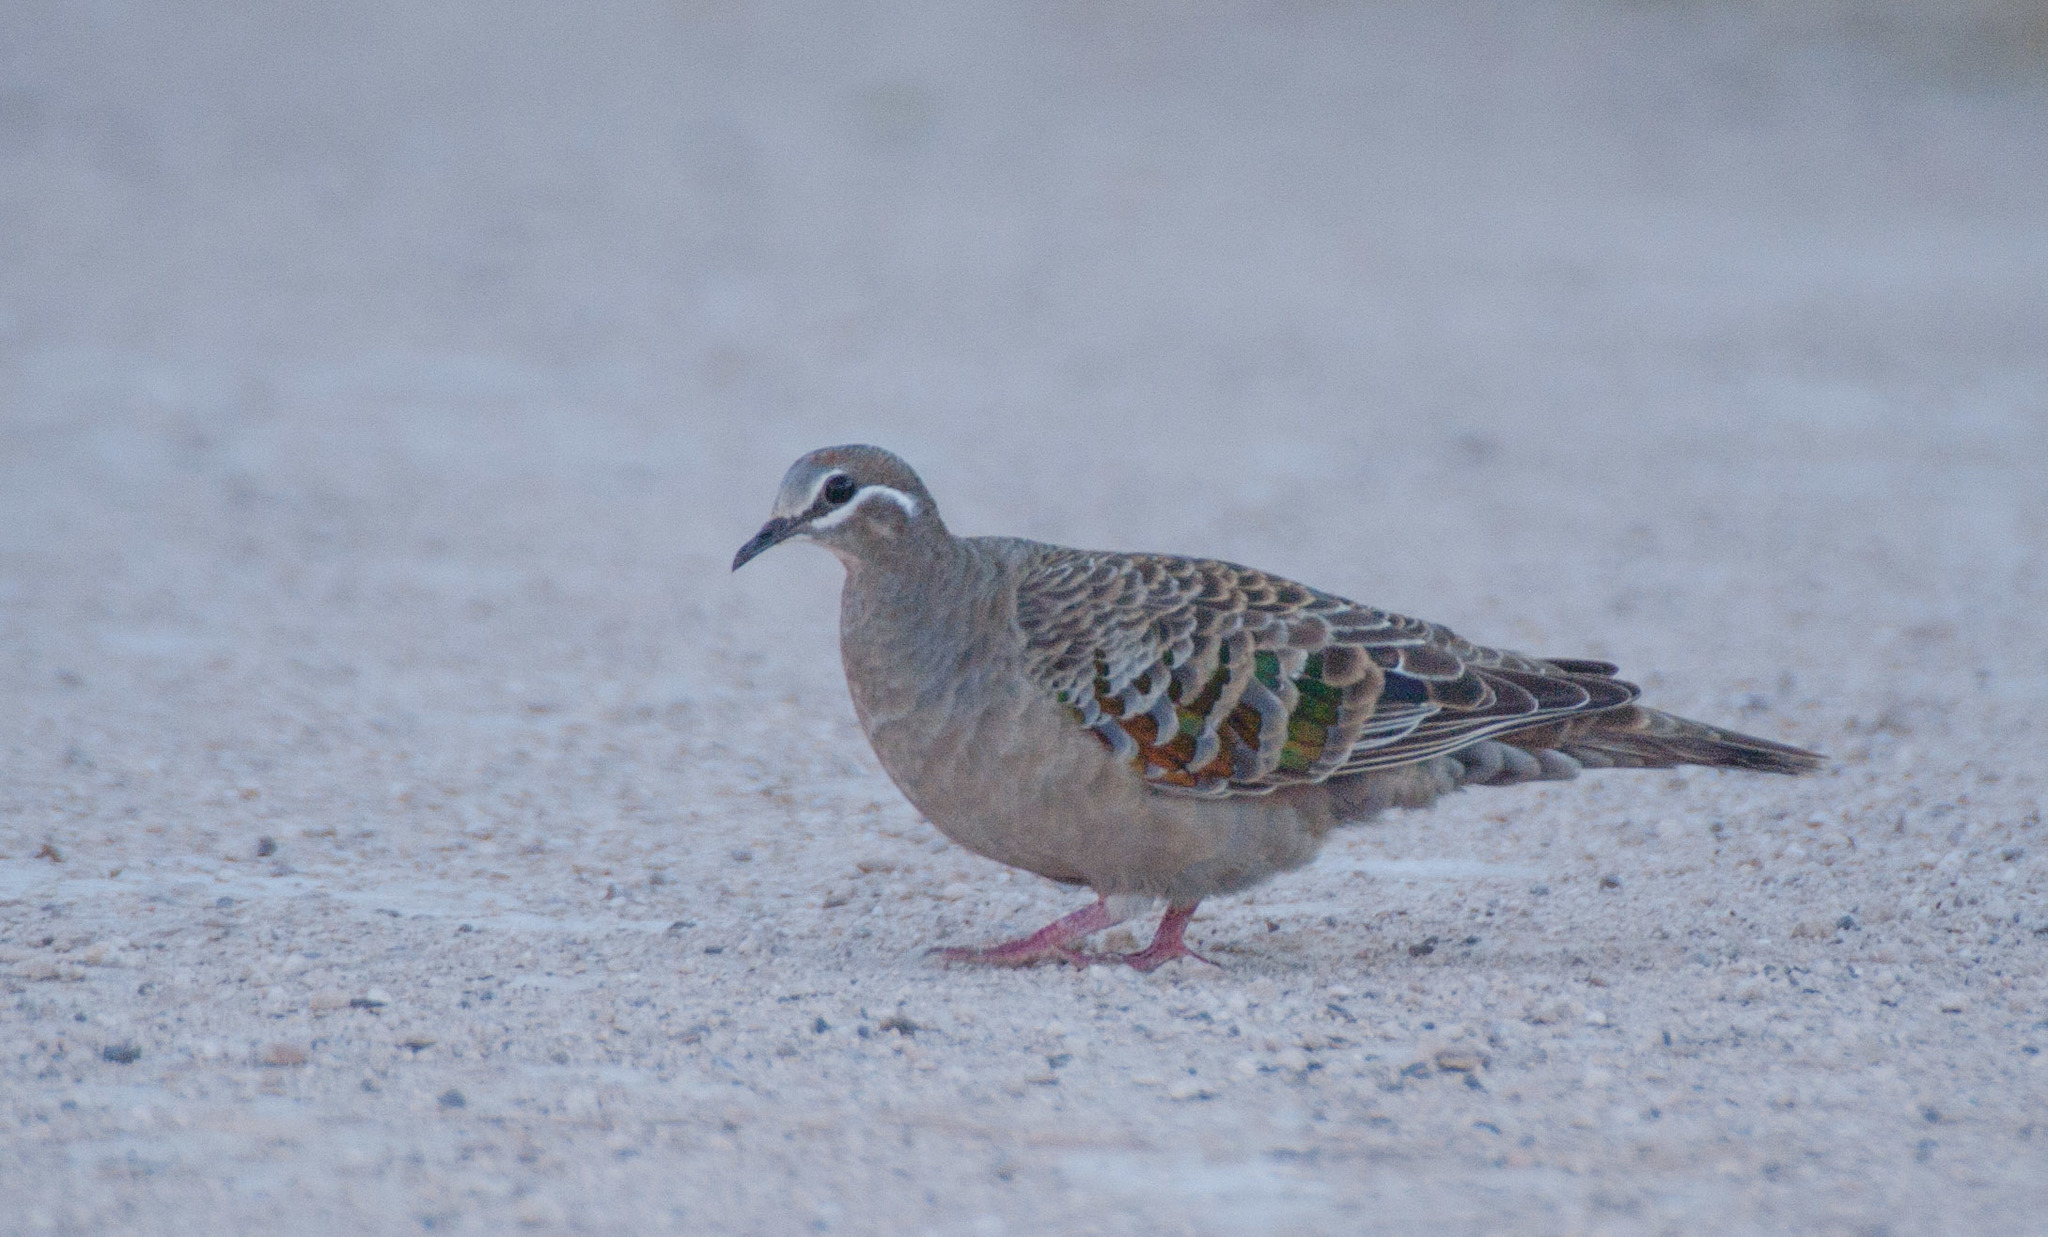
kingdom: Animalia
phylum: Chordata
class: Aves
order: Columbiformes
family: Columbidae
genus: Phaps
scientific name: Phaps chalcoptera
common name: Common bronzewing
